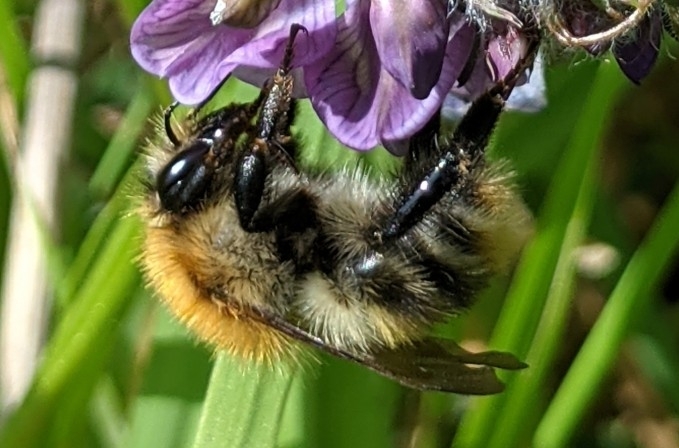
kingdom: Animalia
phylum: Arthropoda
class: Insecta
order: Hymenoptera
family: Apidae
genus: Bombus
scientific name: Bombus pascuorum
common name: Common carder bee
